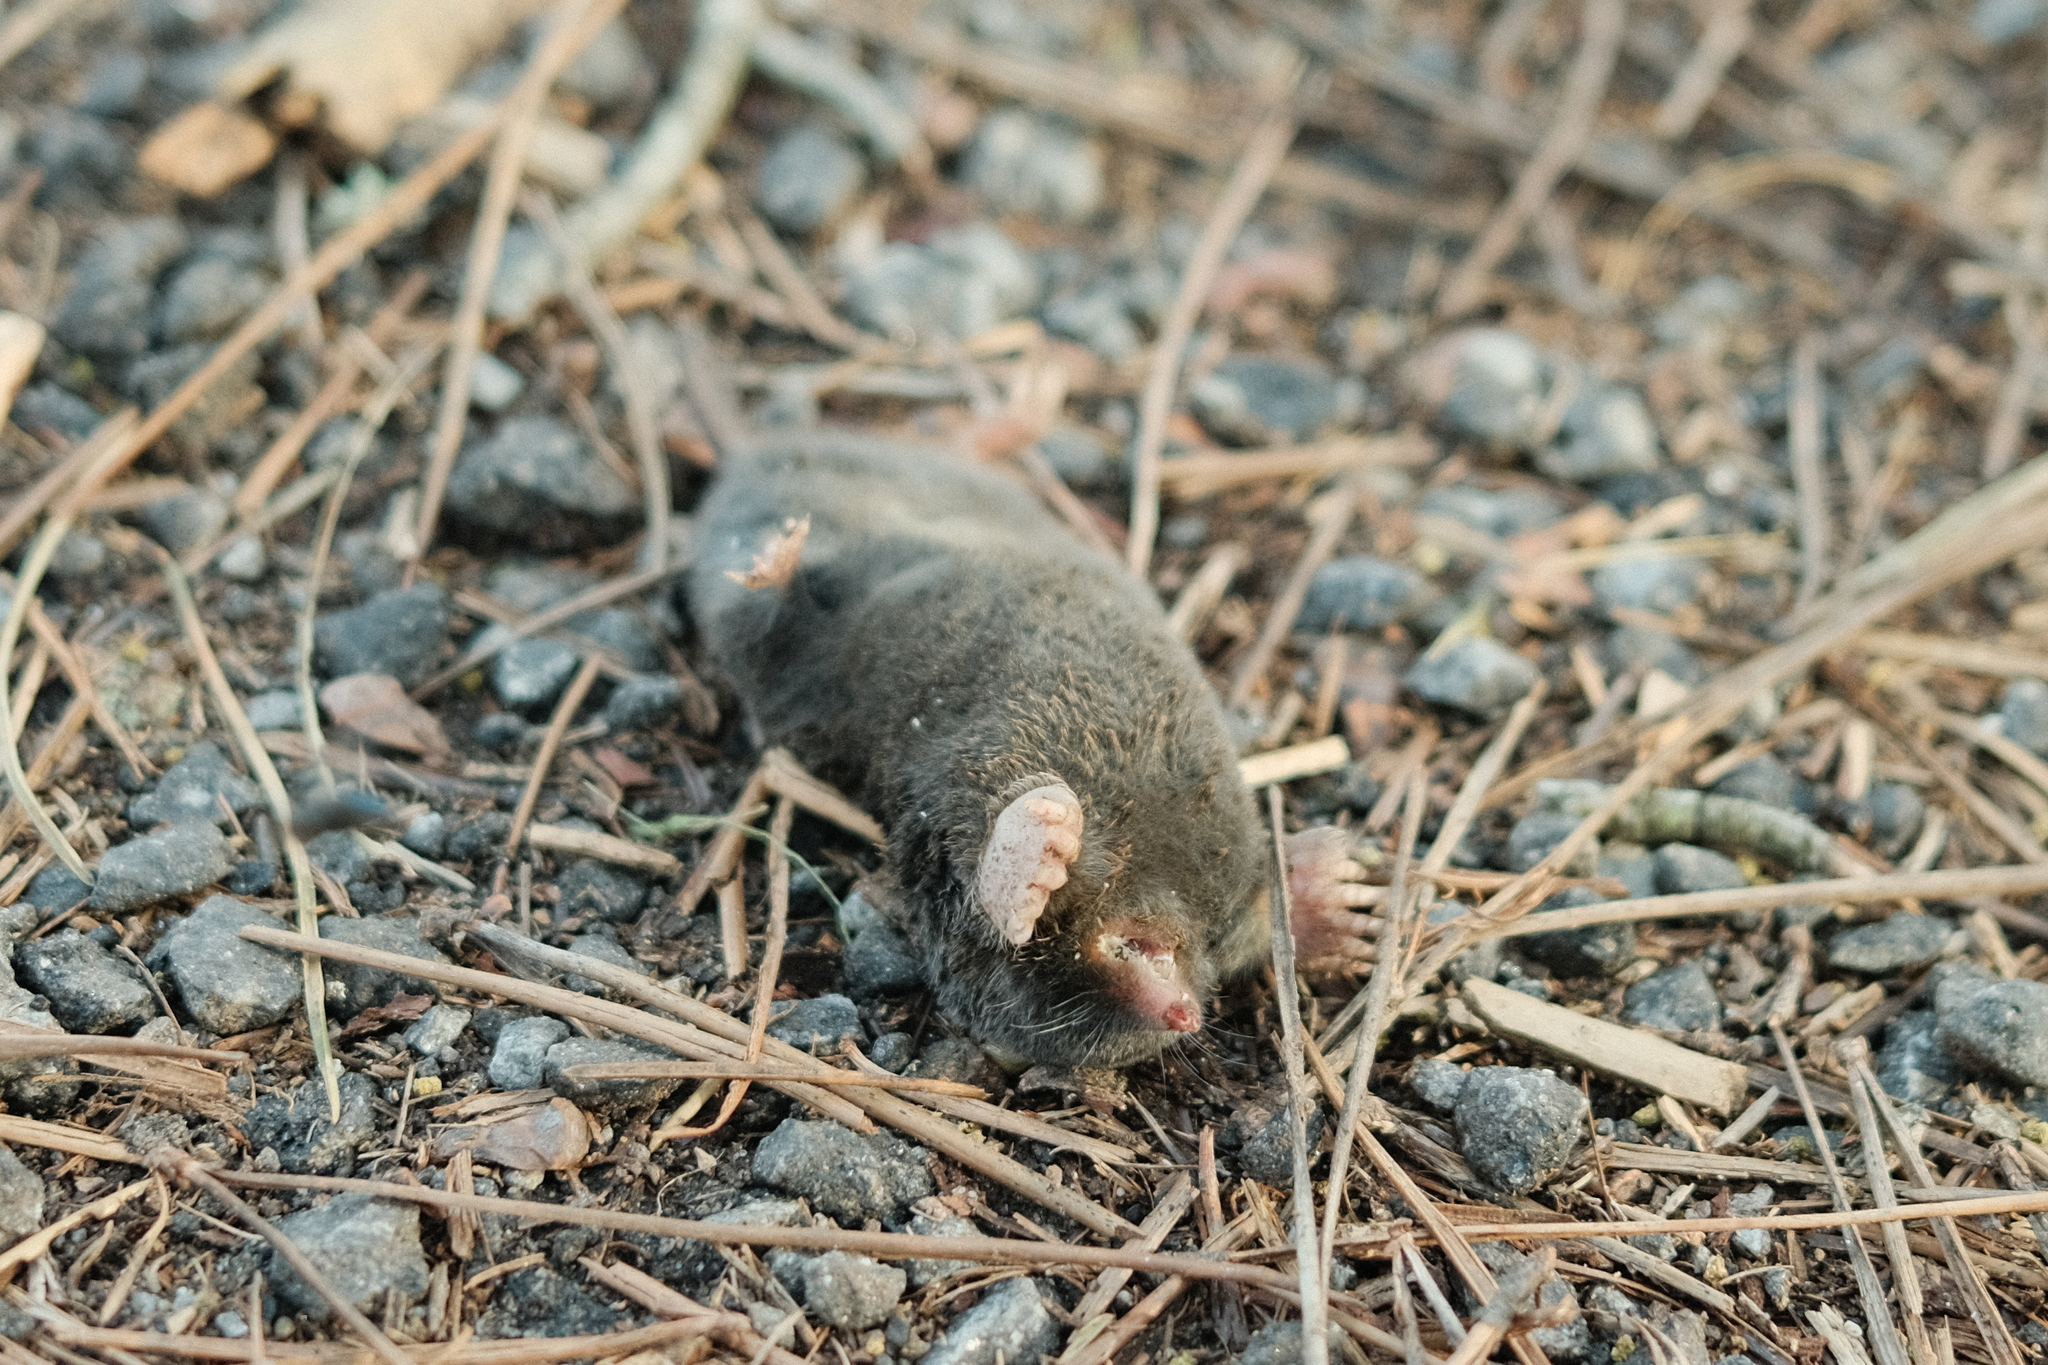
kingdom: Animalia
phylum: Chordata
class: Mammalia
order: Soricomorpha
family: Talpidae
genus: Talpa
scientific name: Talpa occidentalis
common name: Iberian mole
